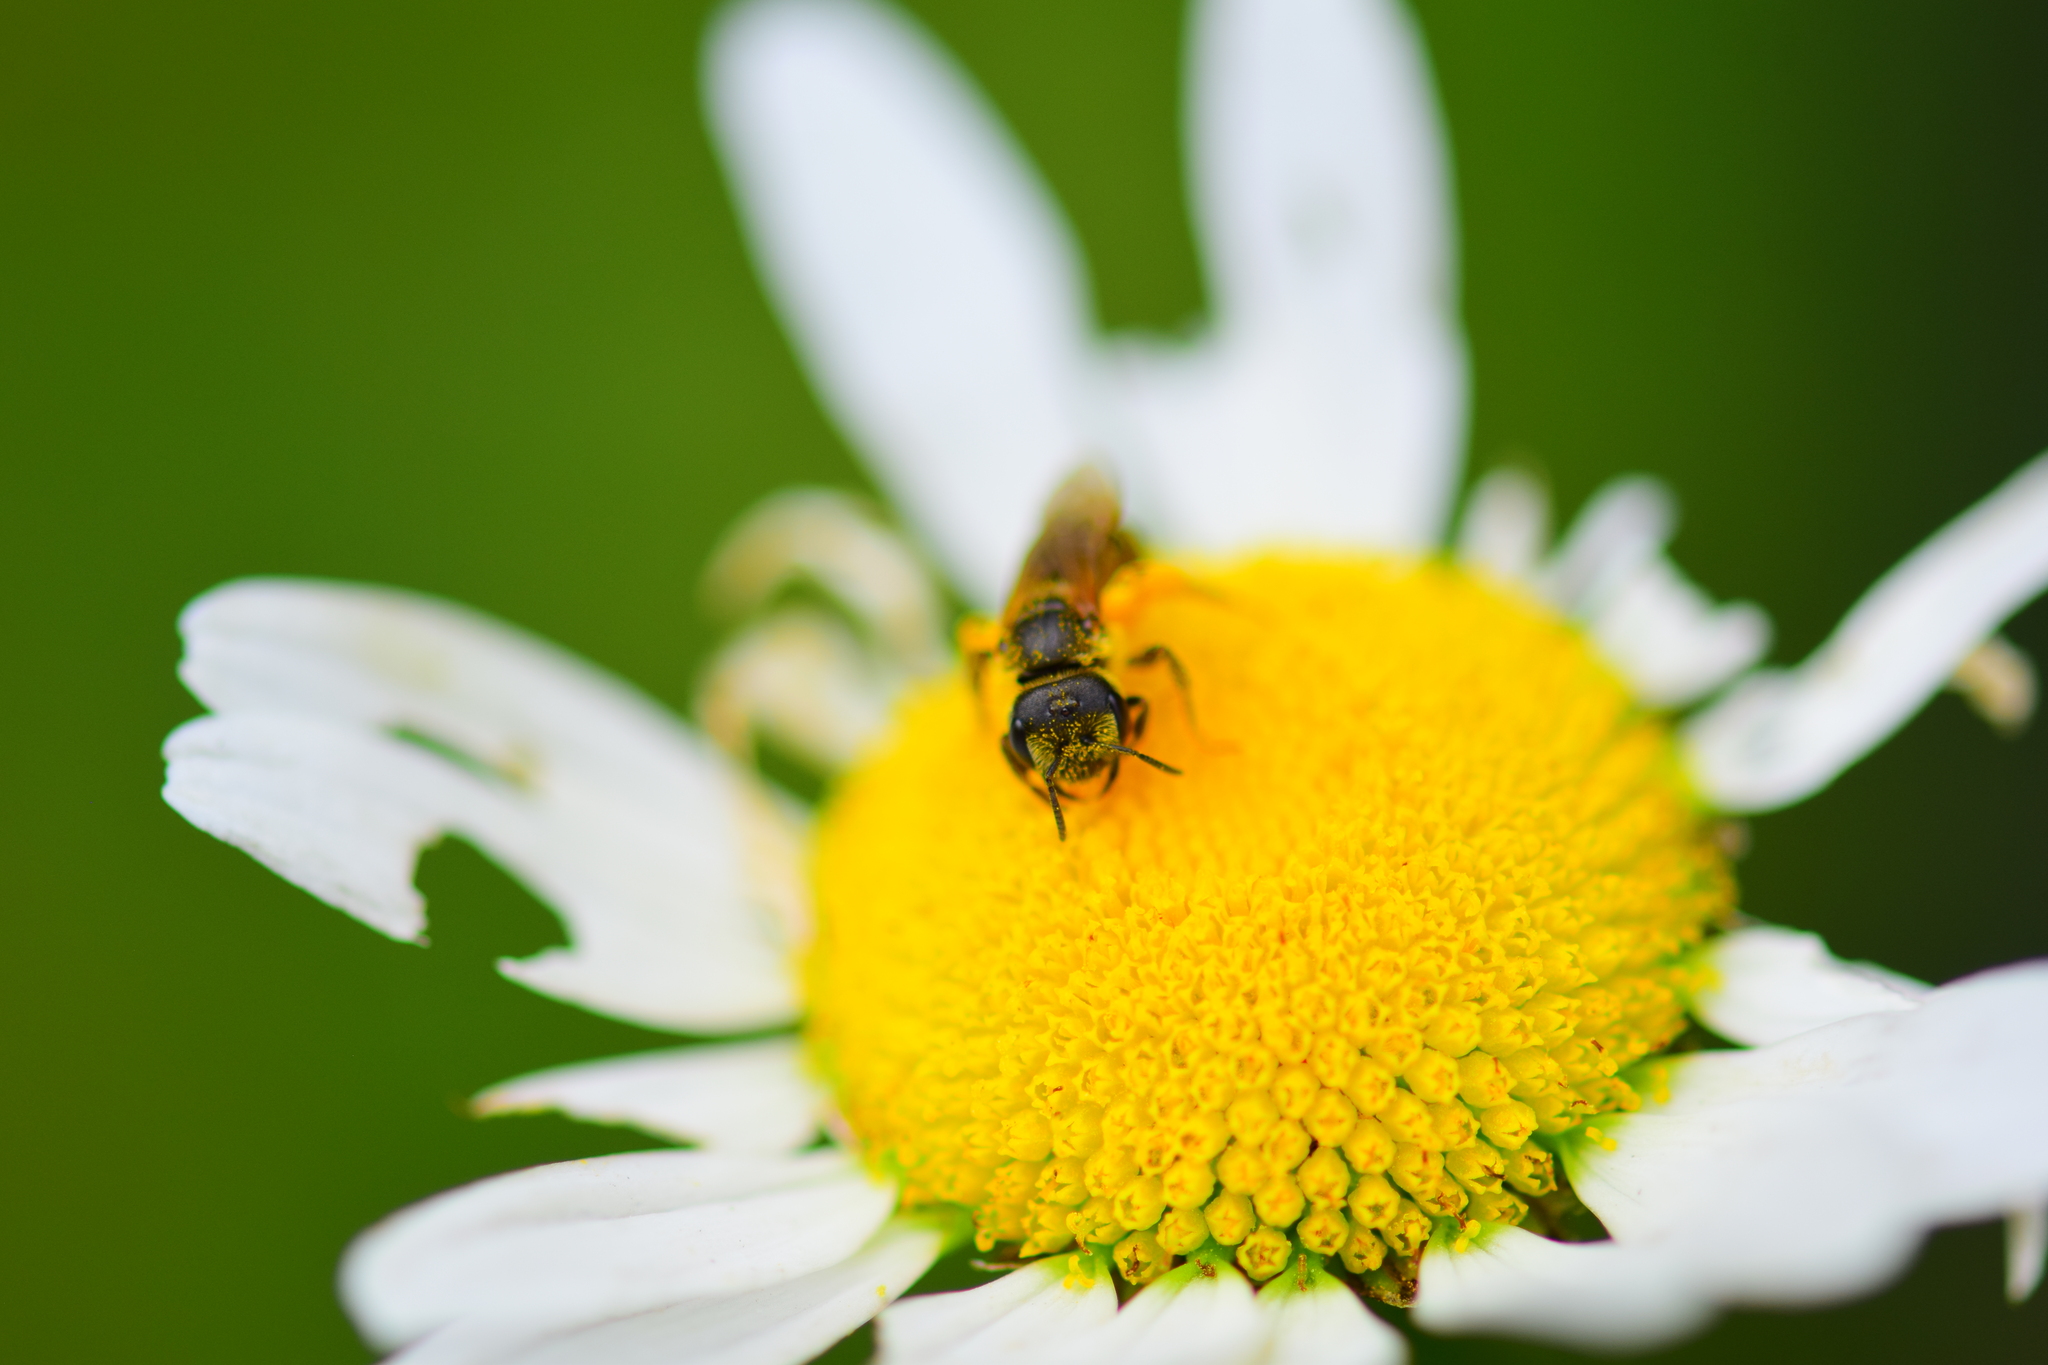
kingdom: Animalia
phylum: Arthropoda
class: Insecta
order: Hymenoptera
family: Halictidae
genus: Halictus
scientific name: Halictus ligatus
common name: Ligated furrow bee
